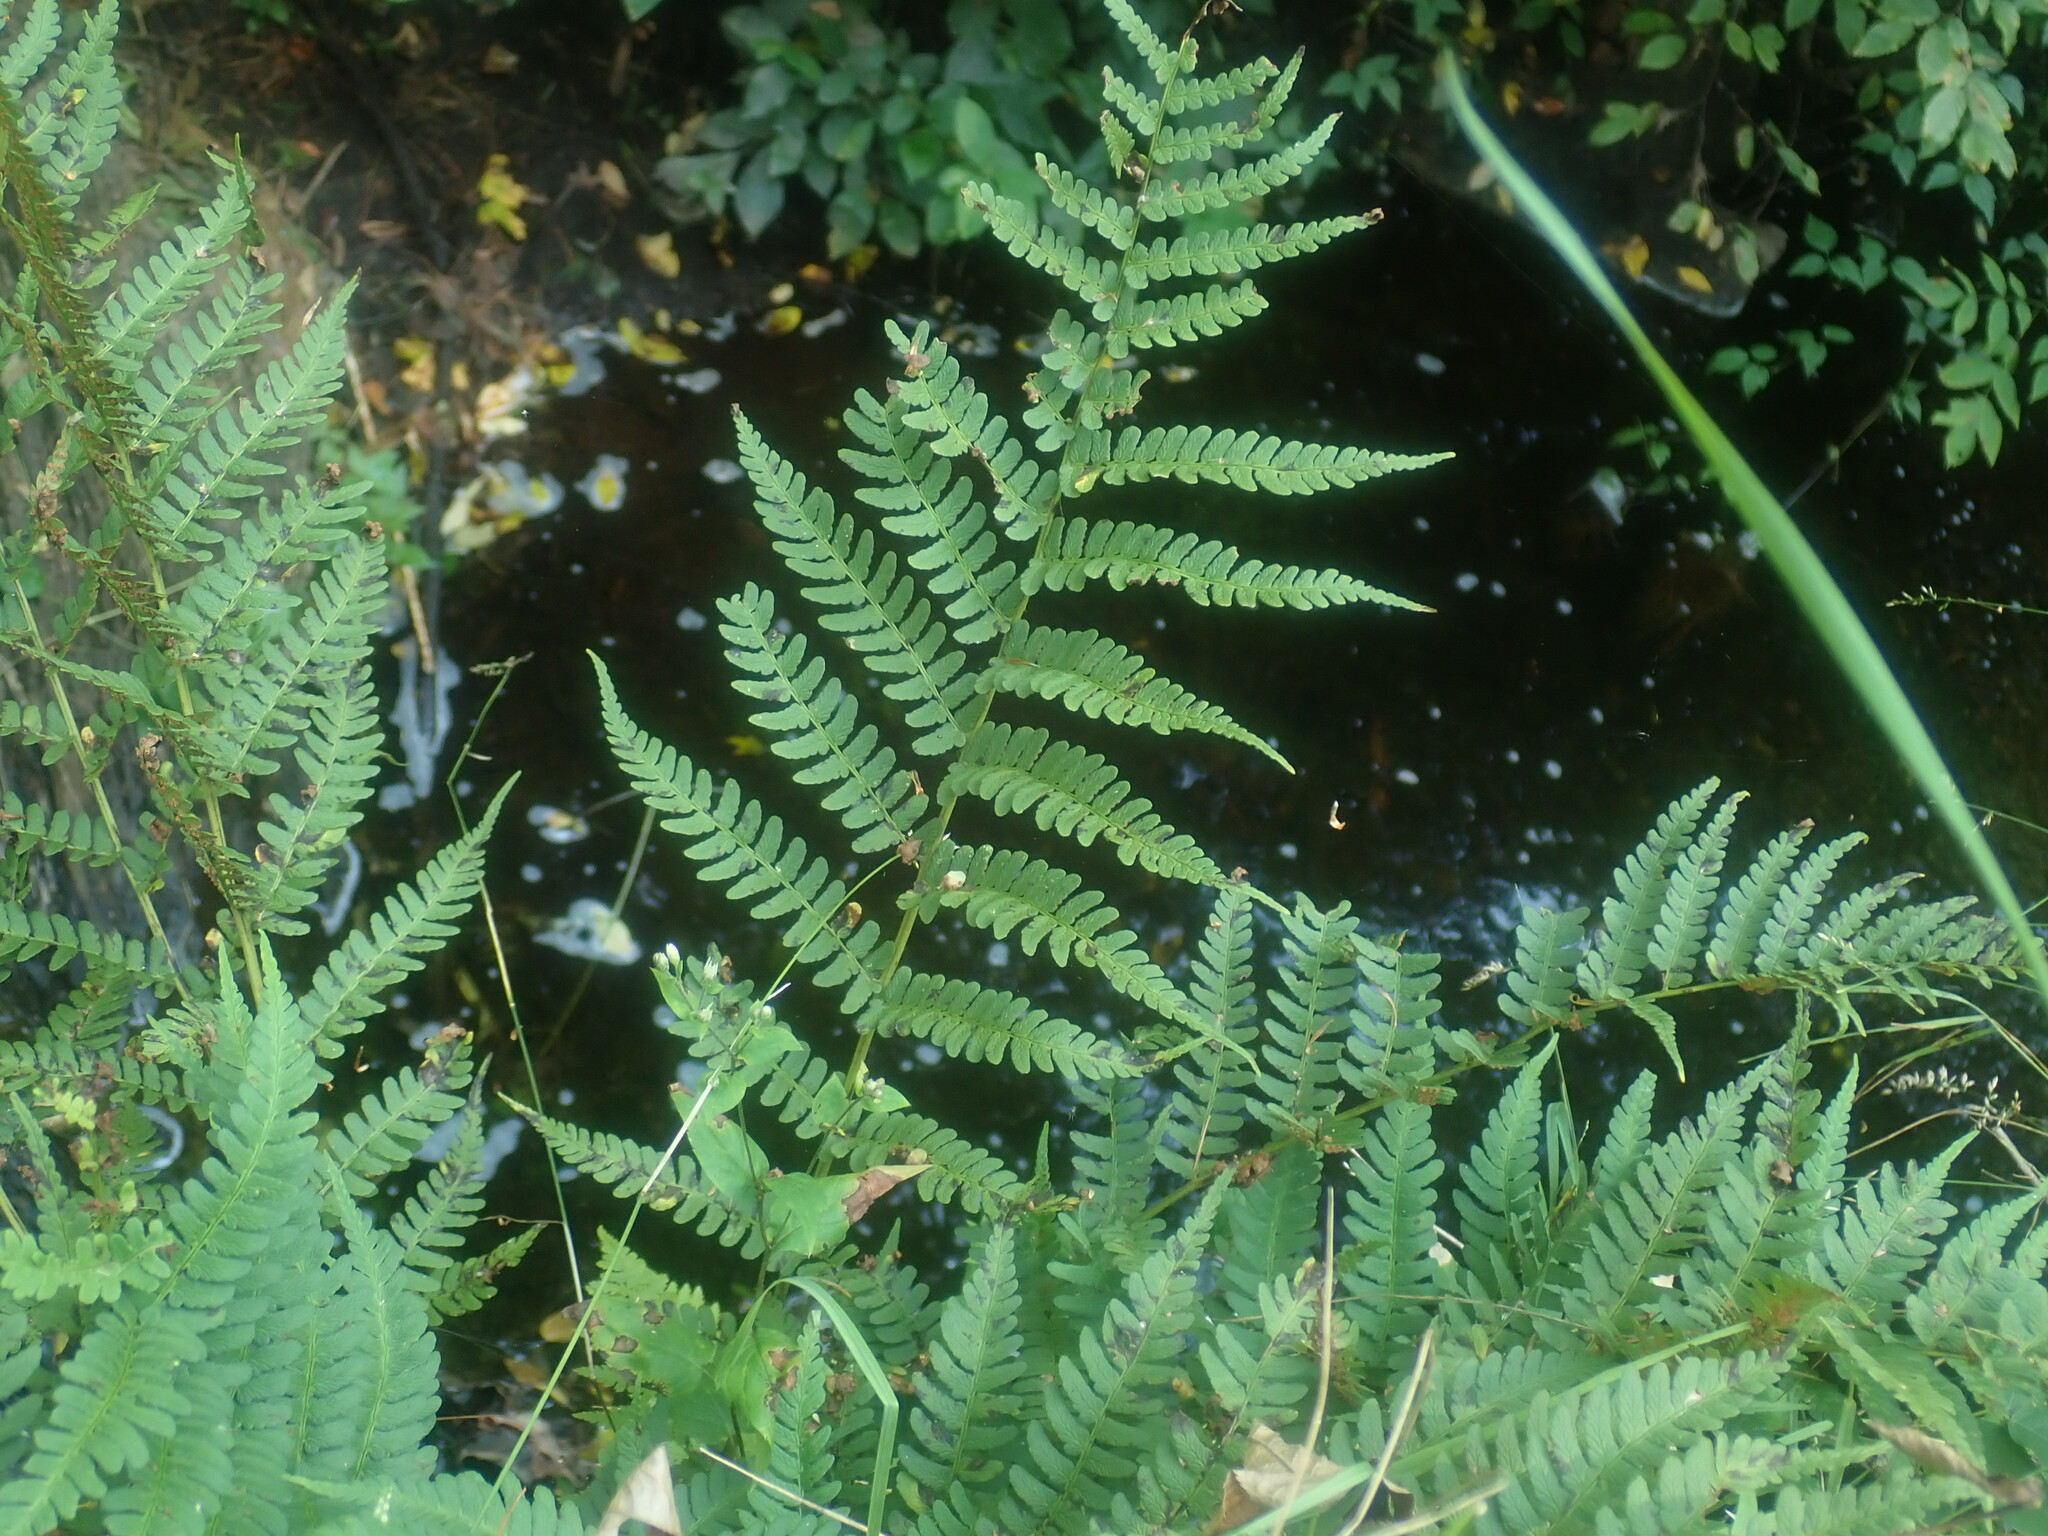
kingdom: Plantae
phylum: Tracheophyta
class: Polypodiopsida
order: Polypodiales
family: Dryopteridaceae
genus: Dryopteris
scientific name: Dryopteris marginalis
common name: Marginal wood fern
